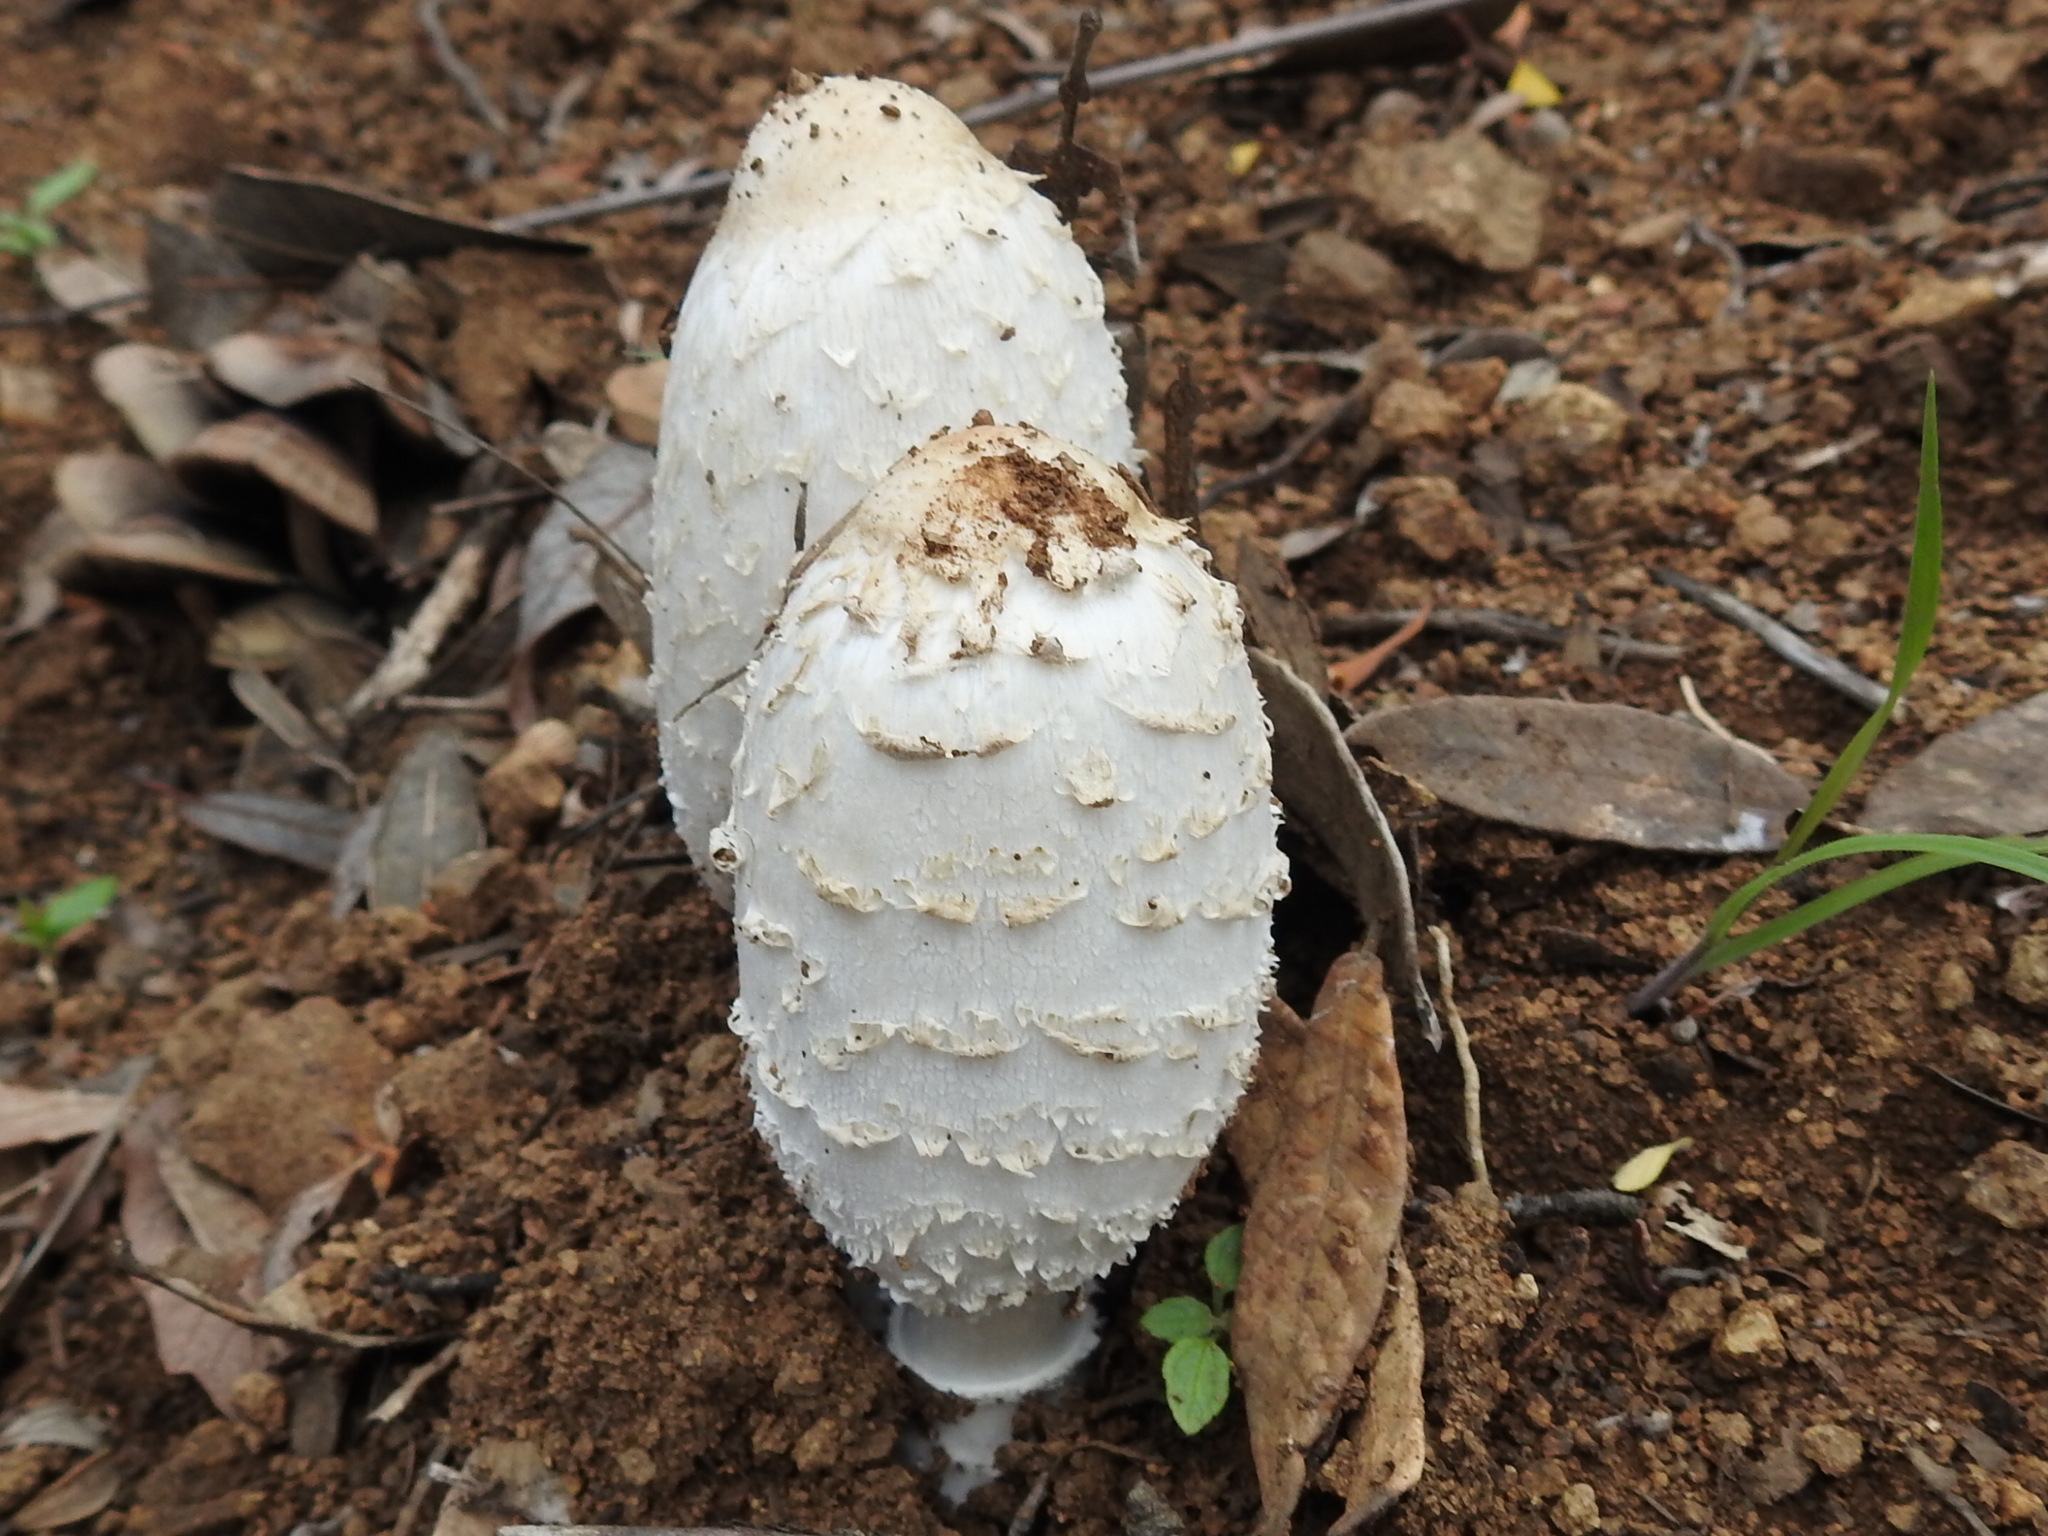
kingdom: Fungi
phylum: Basidiomycota
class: Agaricomycetes
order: Agaricales
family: Agaricaceae
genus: Coprinus
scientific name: Coprinus comatus
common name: Lawyer's wig
